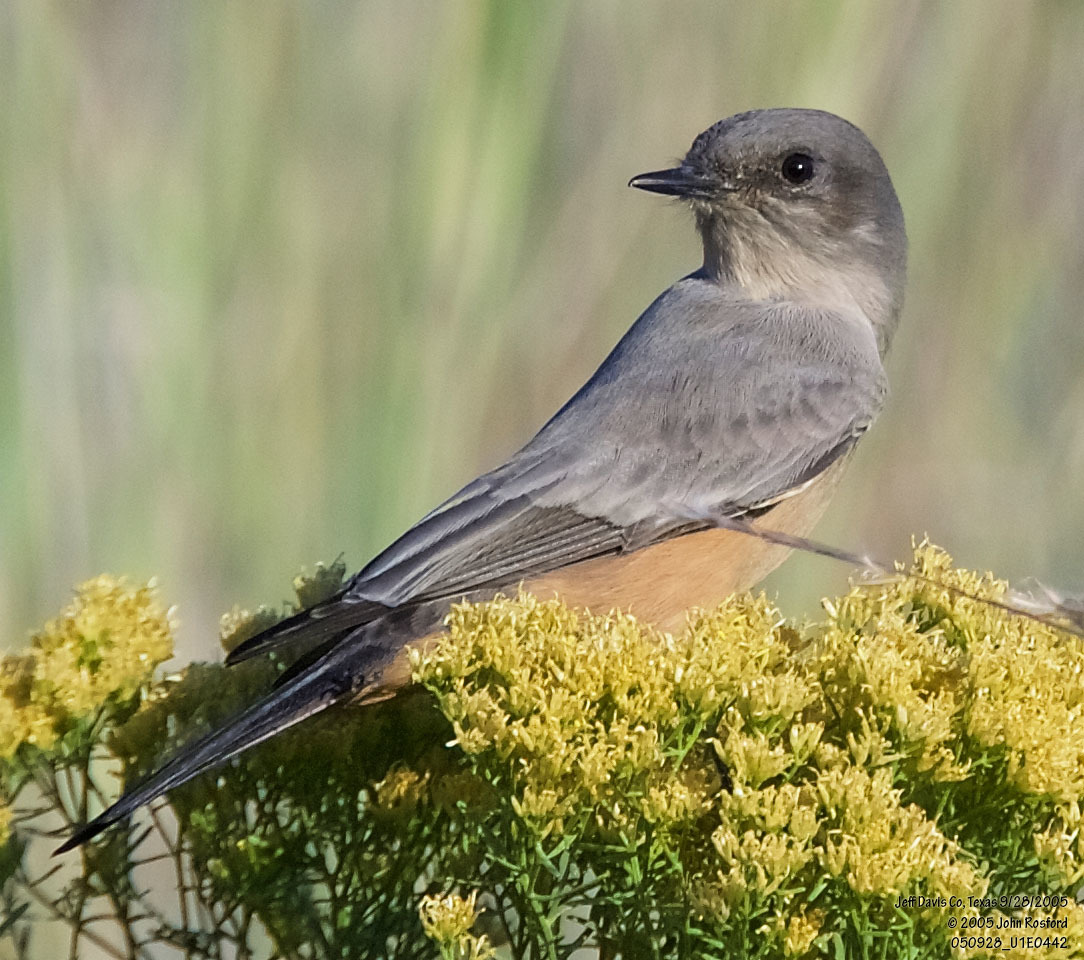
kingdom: Animalia
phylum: Chordata
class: Aves
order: Passeriformes
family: Tyrannidae
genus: Sayornis
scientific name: Sayornis saya
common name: Say's phoebe
